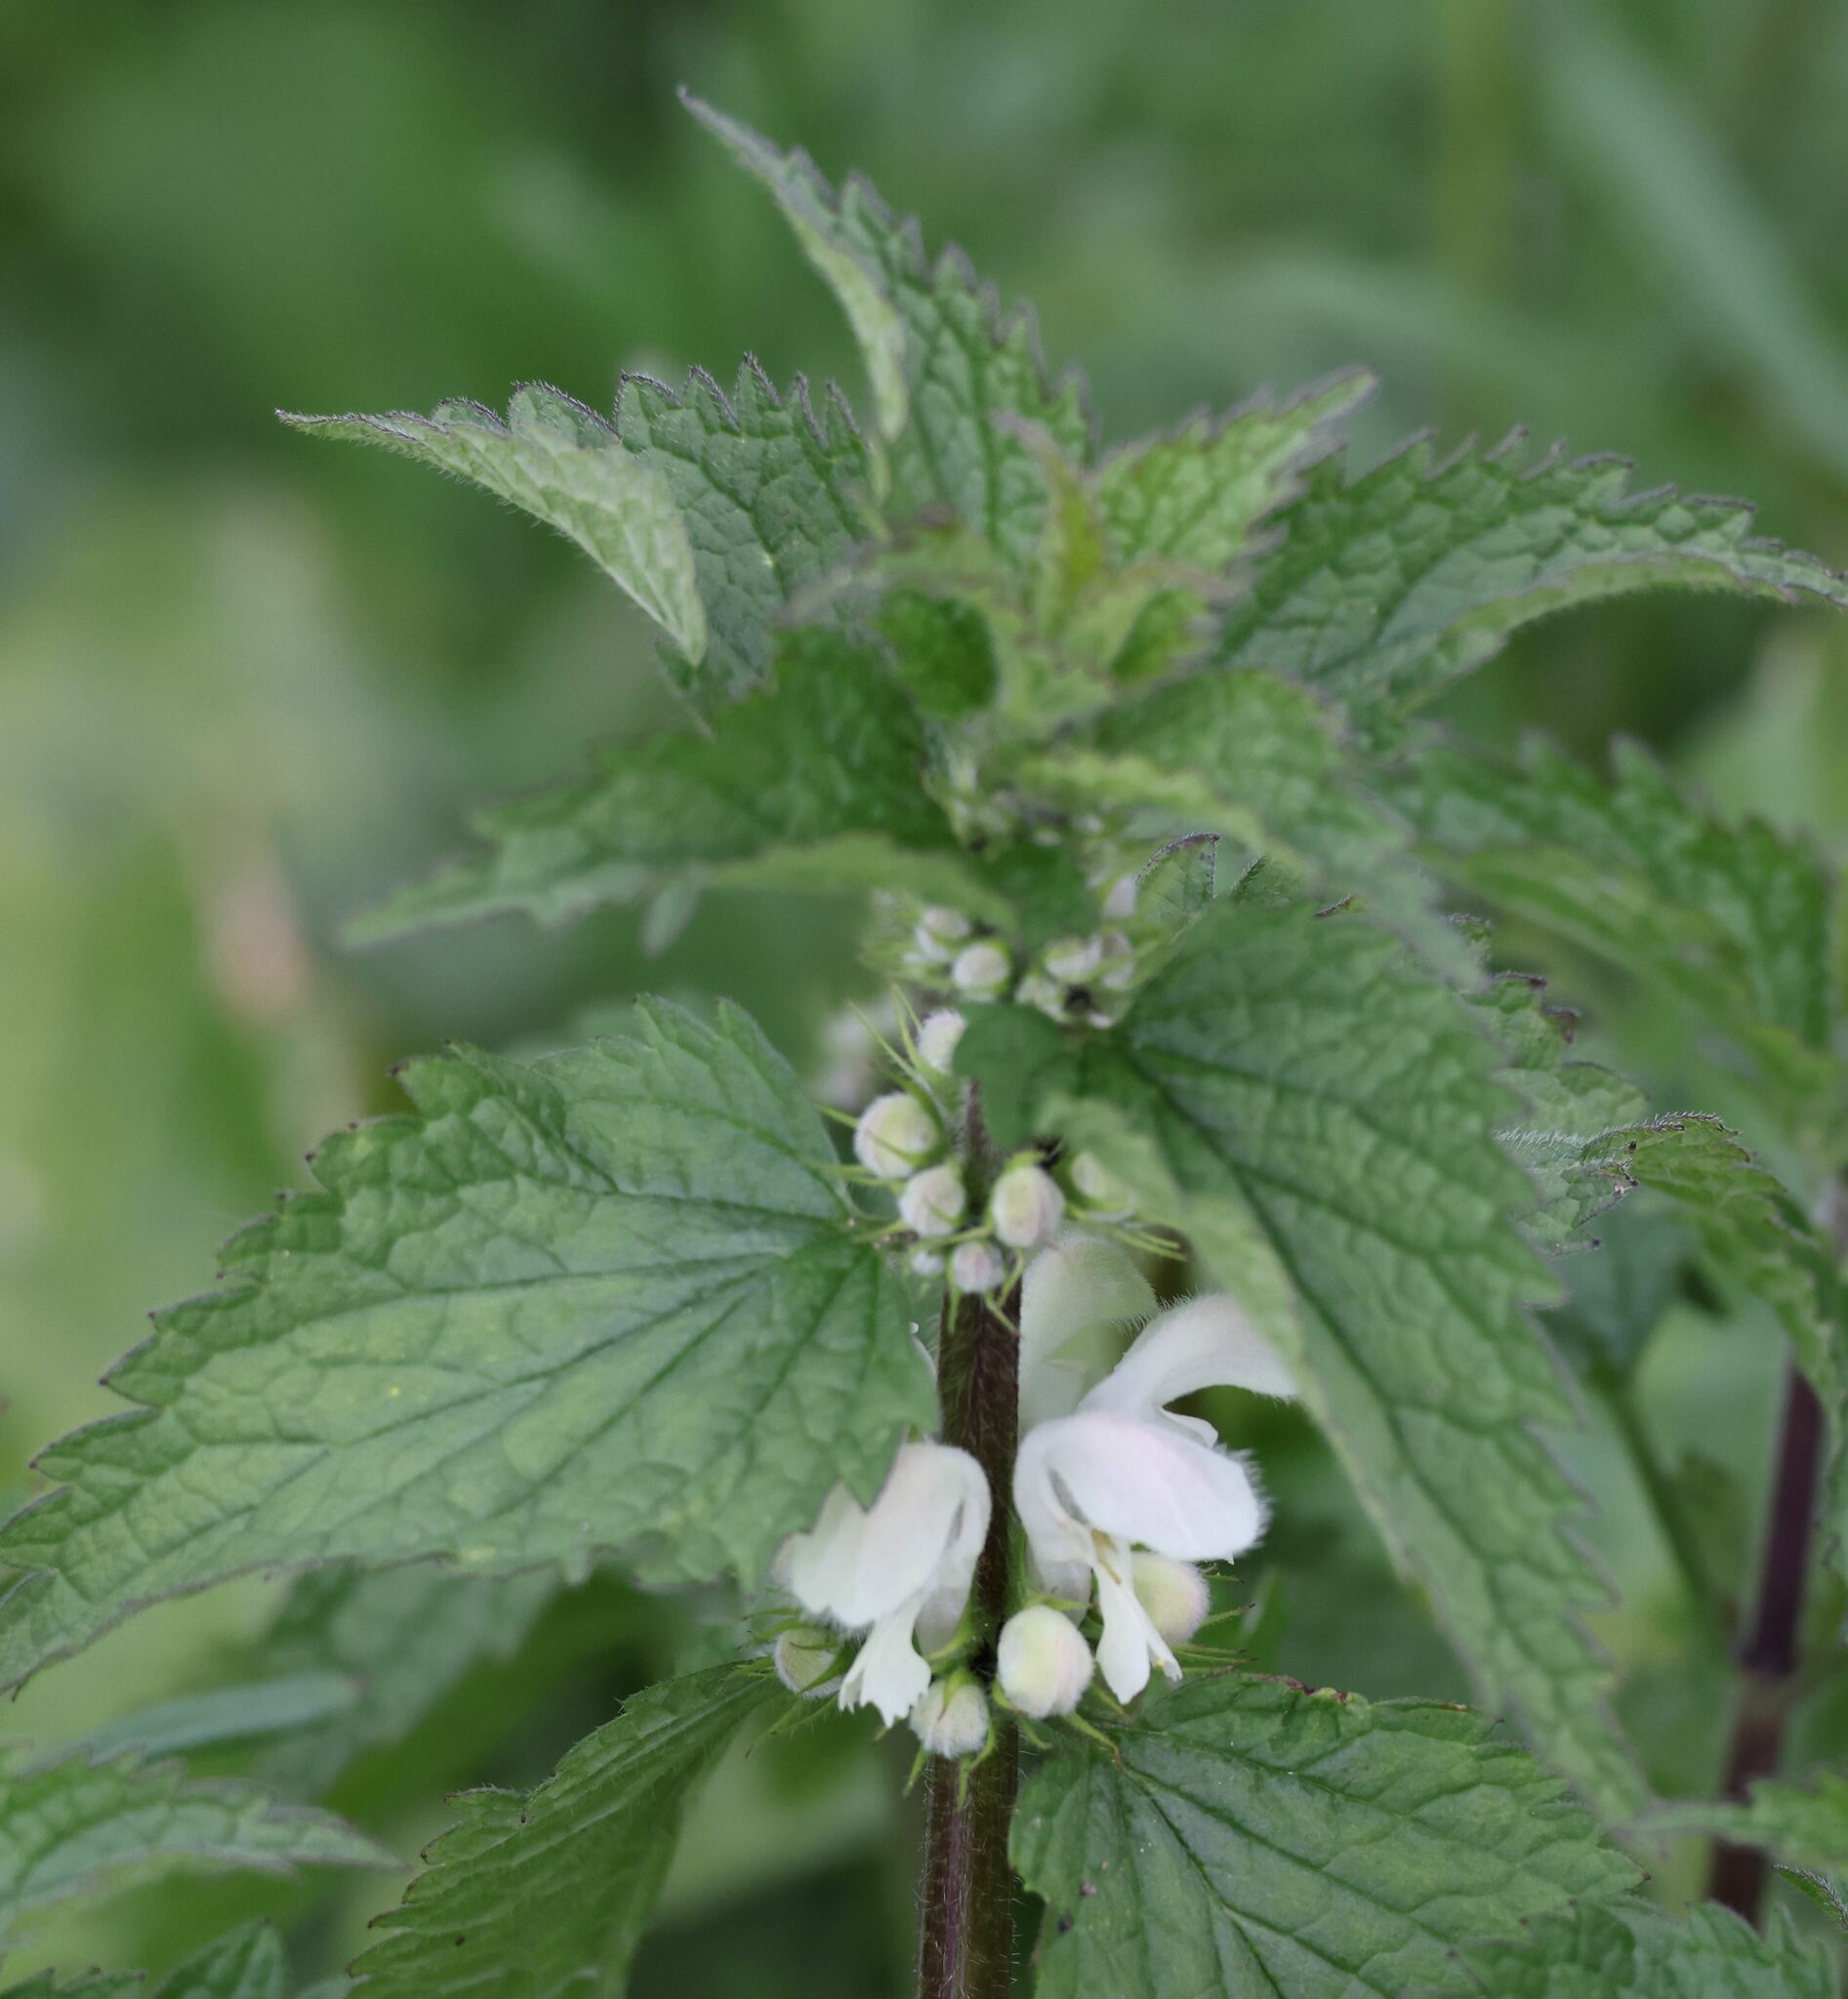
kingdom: Plantae
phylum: Tracheophyta
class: Magnoliopsida
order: Lamiales
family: Lamiaceae
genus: Lamium
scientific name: Lamium album
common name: White dead-nettle
